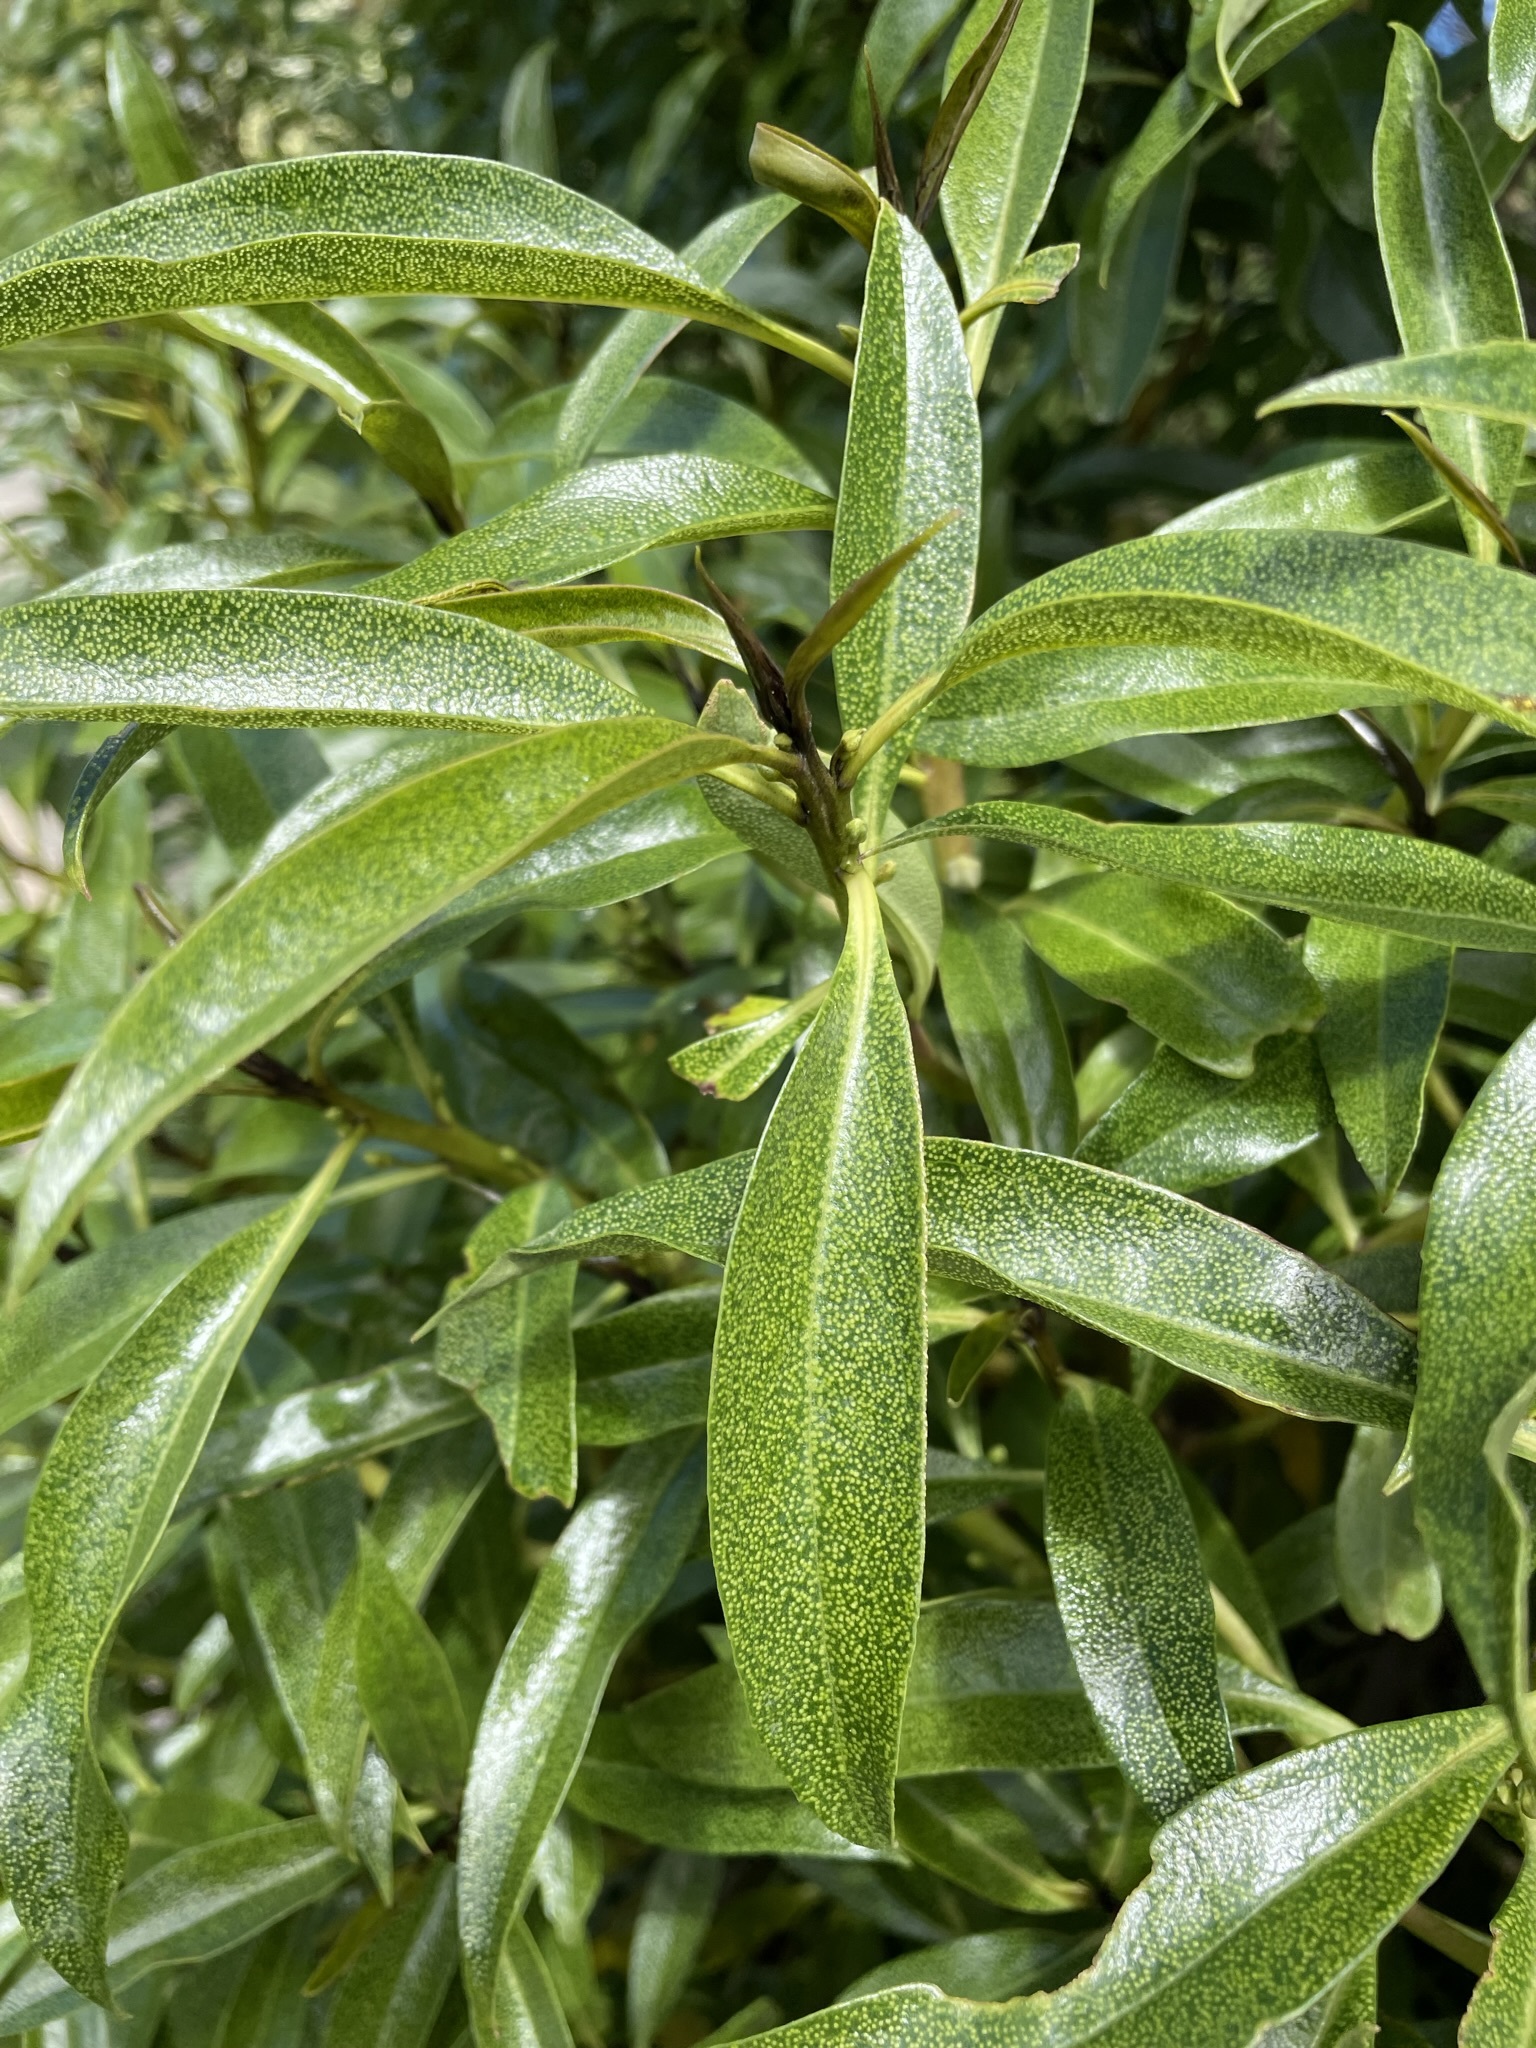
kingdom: Plantae
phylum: Tracheophyta
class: Magnoliopsida
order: Lamiales
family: Scrophulariaceae
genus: Myoporum
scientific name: Myoporum laetum
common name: Ngaio tree
